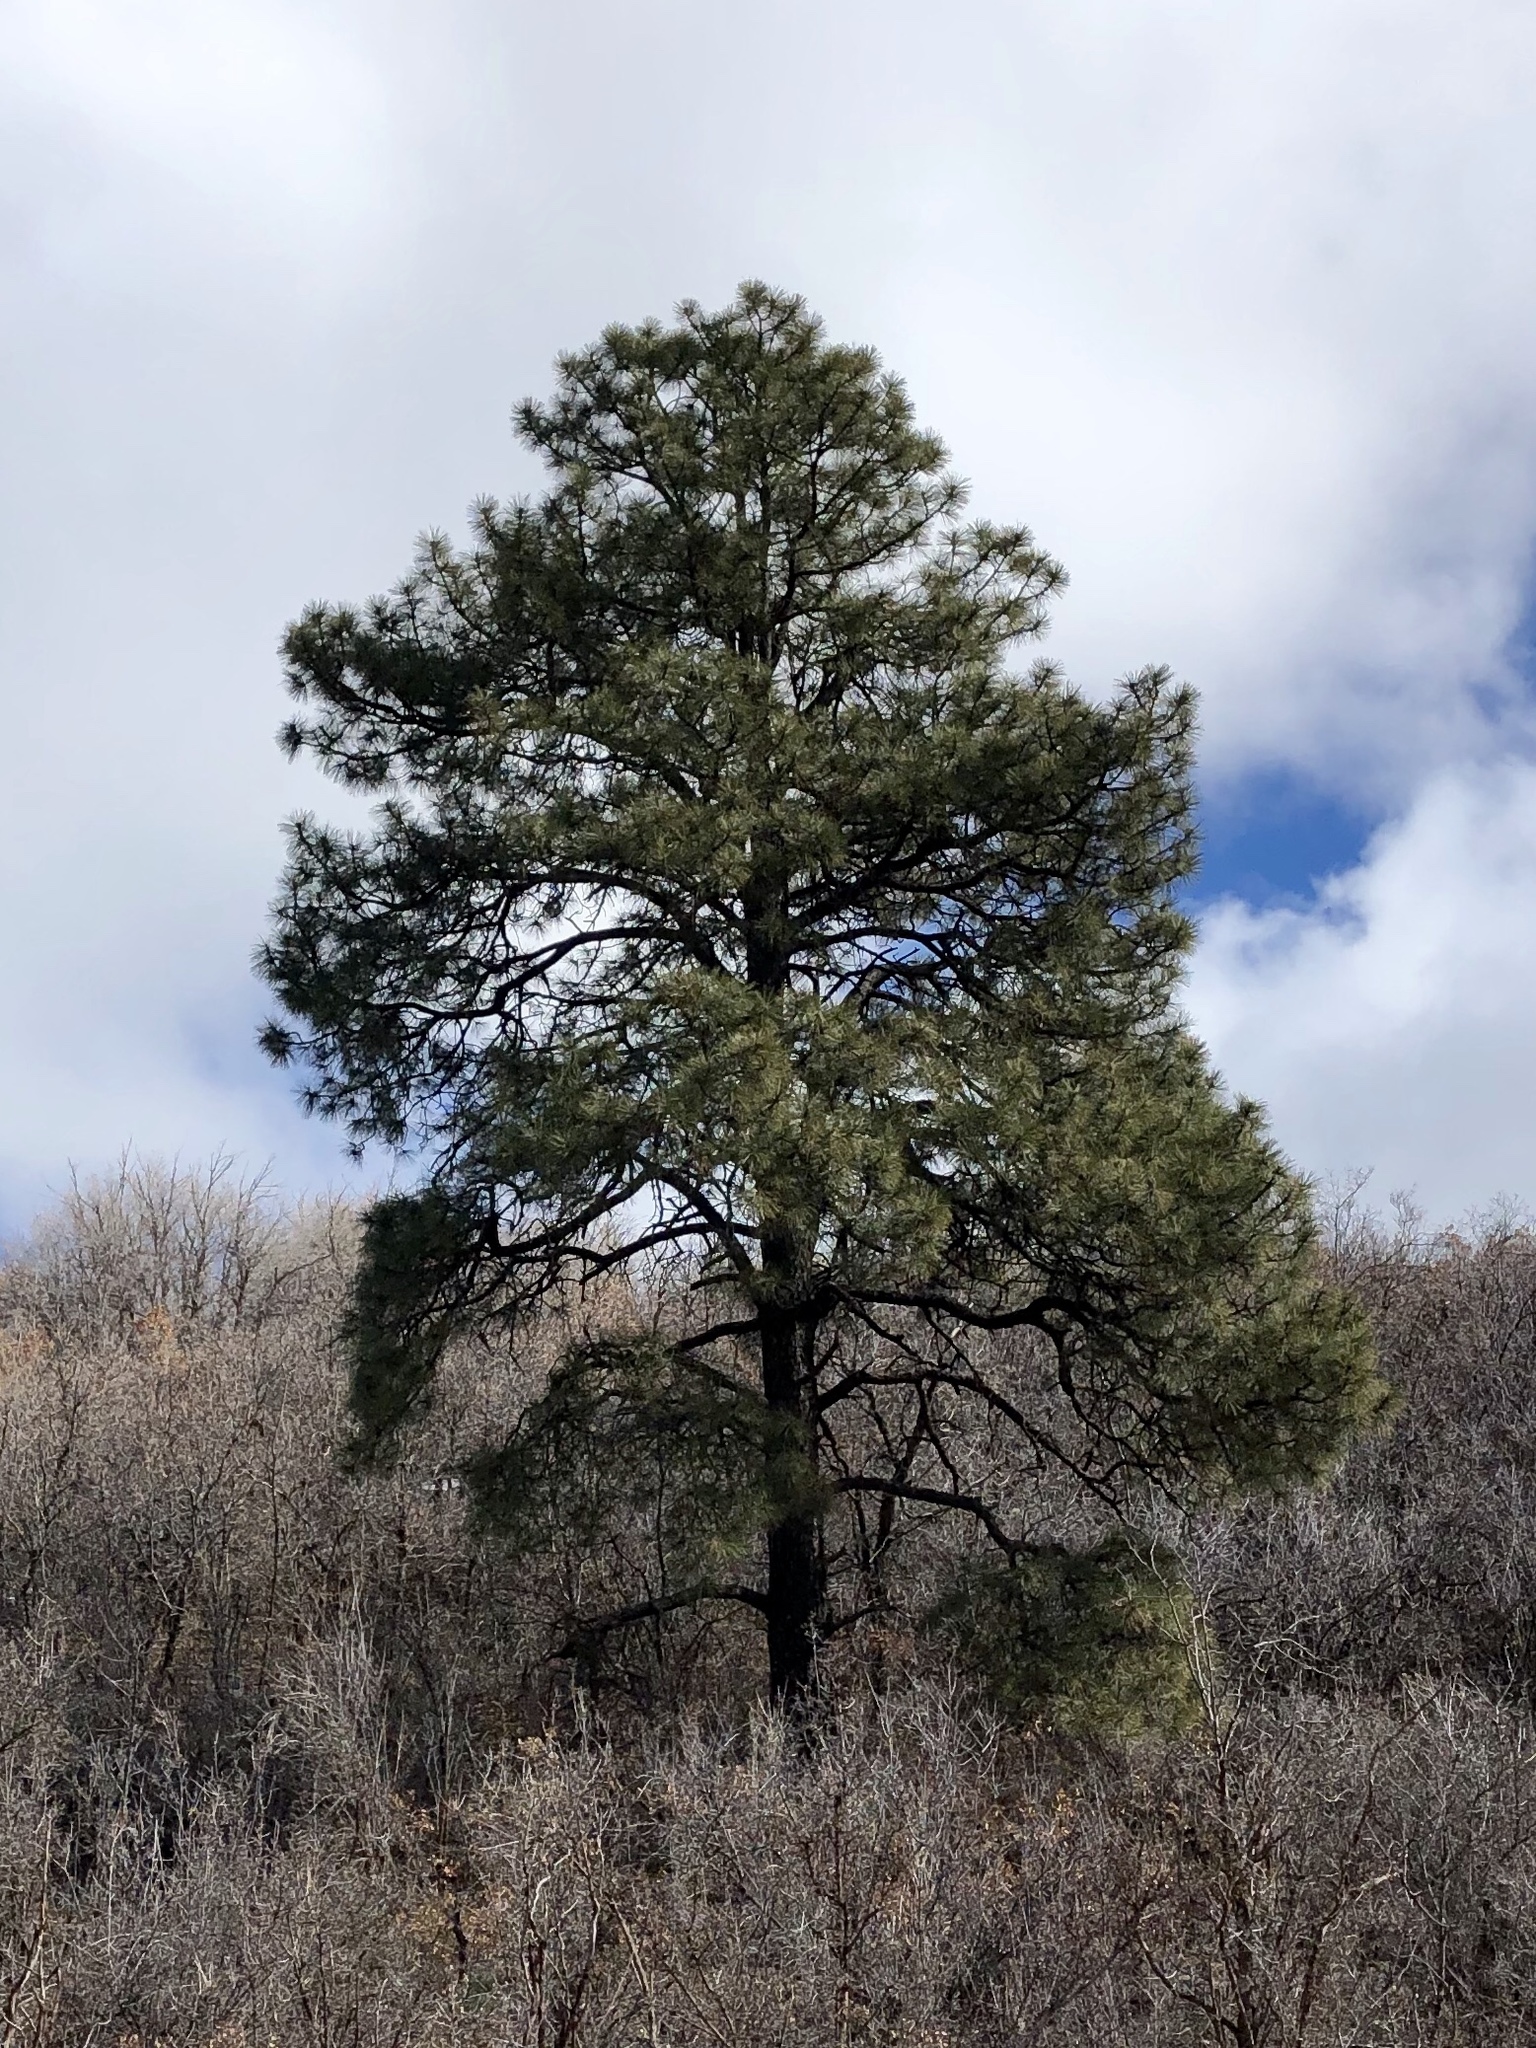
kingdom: Plantae
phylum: Tracheophyta
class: Pinopsida
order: Pinales
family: Pinaceae
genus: Pinus
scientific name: Pinus ponderosa
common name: Western yellow-pine
